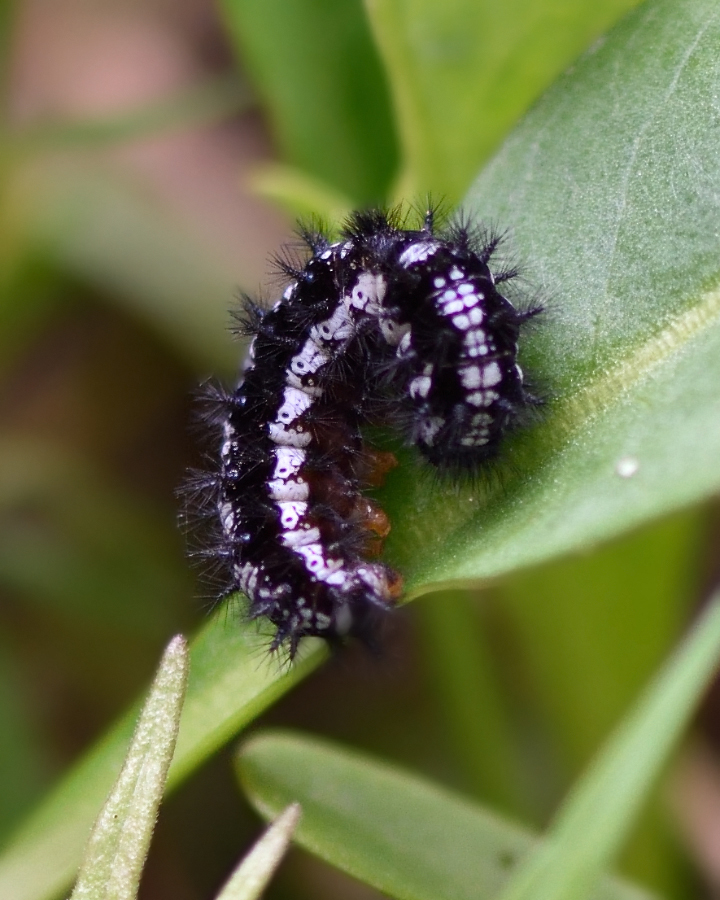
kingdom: Animalia
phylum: Arthropoda
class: Insecta
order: Lepidoptera
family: Nymphalidae
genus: Euphydryas
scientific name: Euphydryas aurinia
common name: Marsh fritillary
